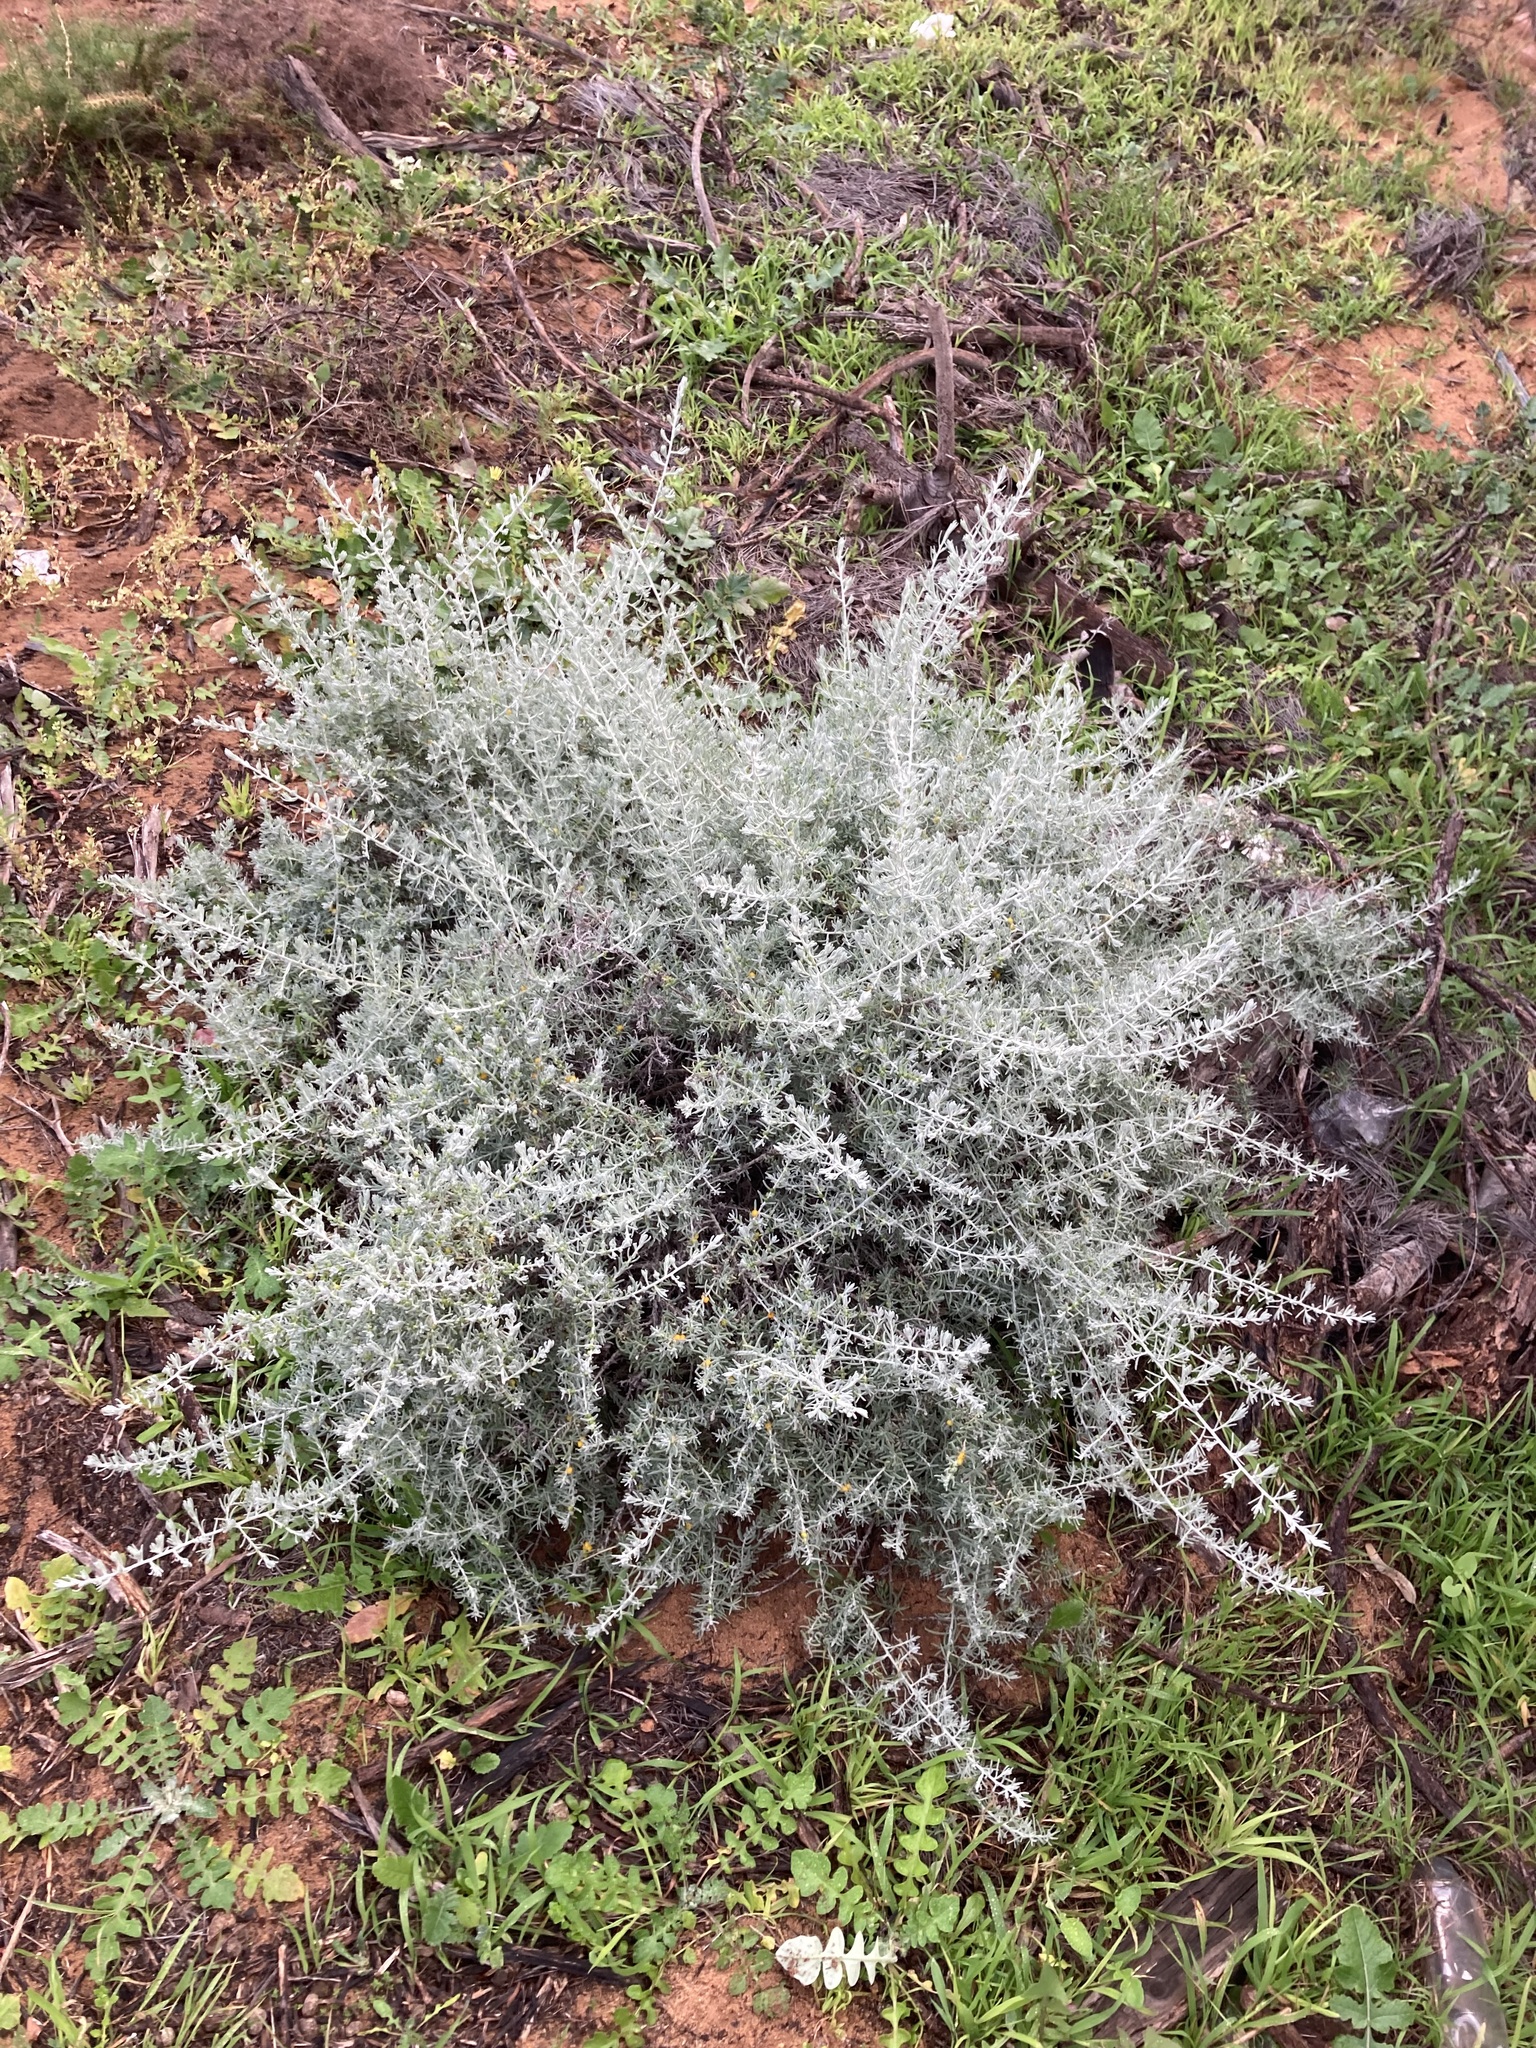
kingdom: Plantae
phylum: Tracheophyta
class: Magnoliopsida
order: Caryophyllales
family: Amaranthaceae
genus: Enchylaena
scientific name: Enchylaena tomentosa
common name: Ruby saltbush
